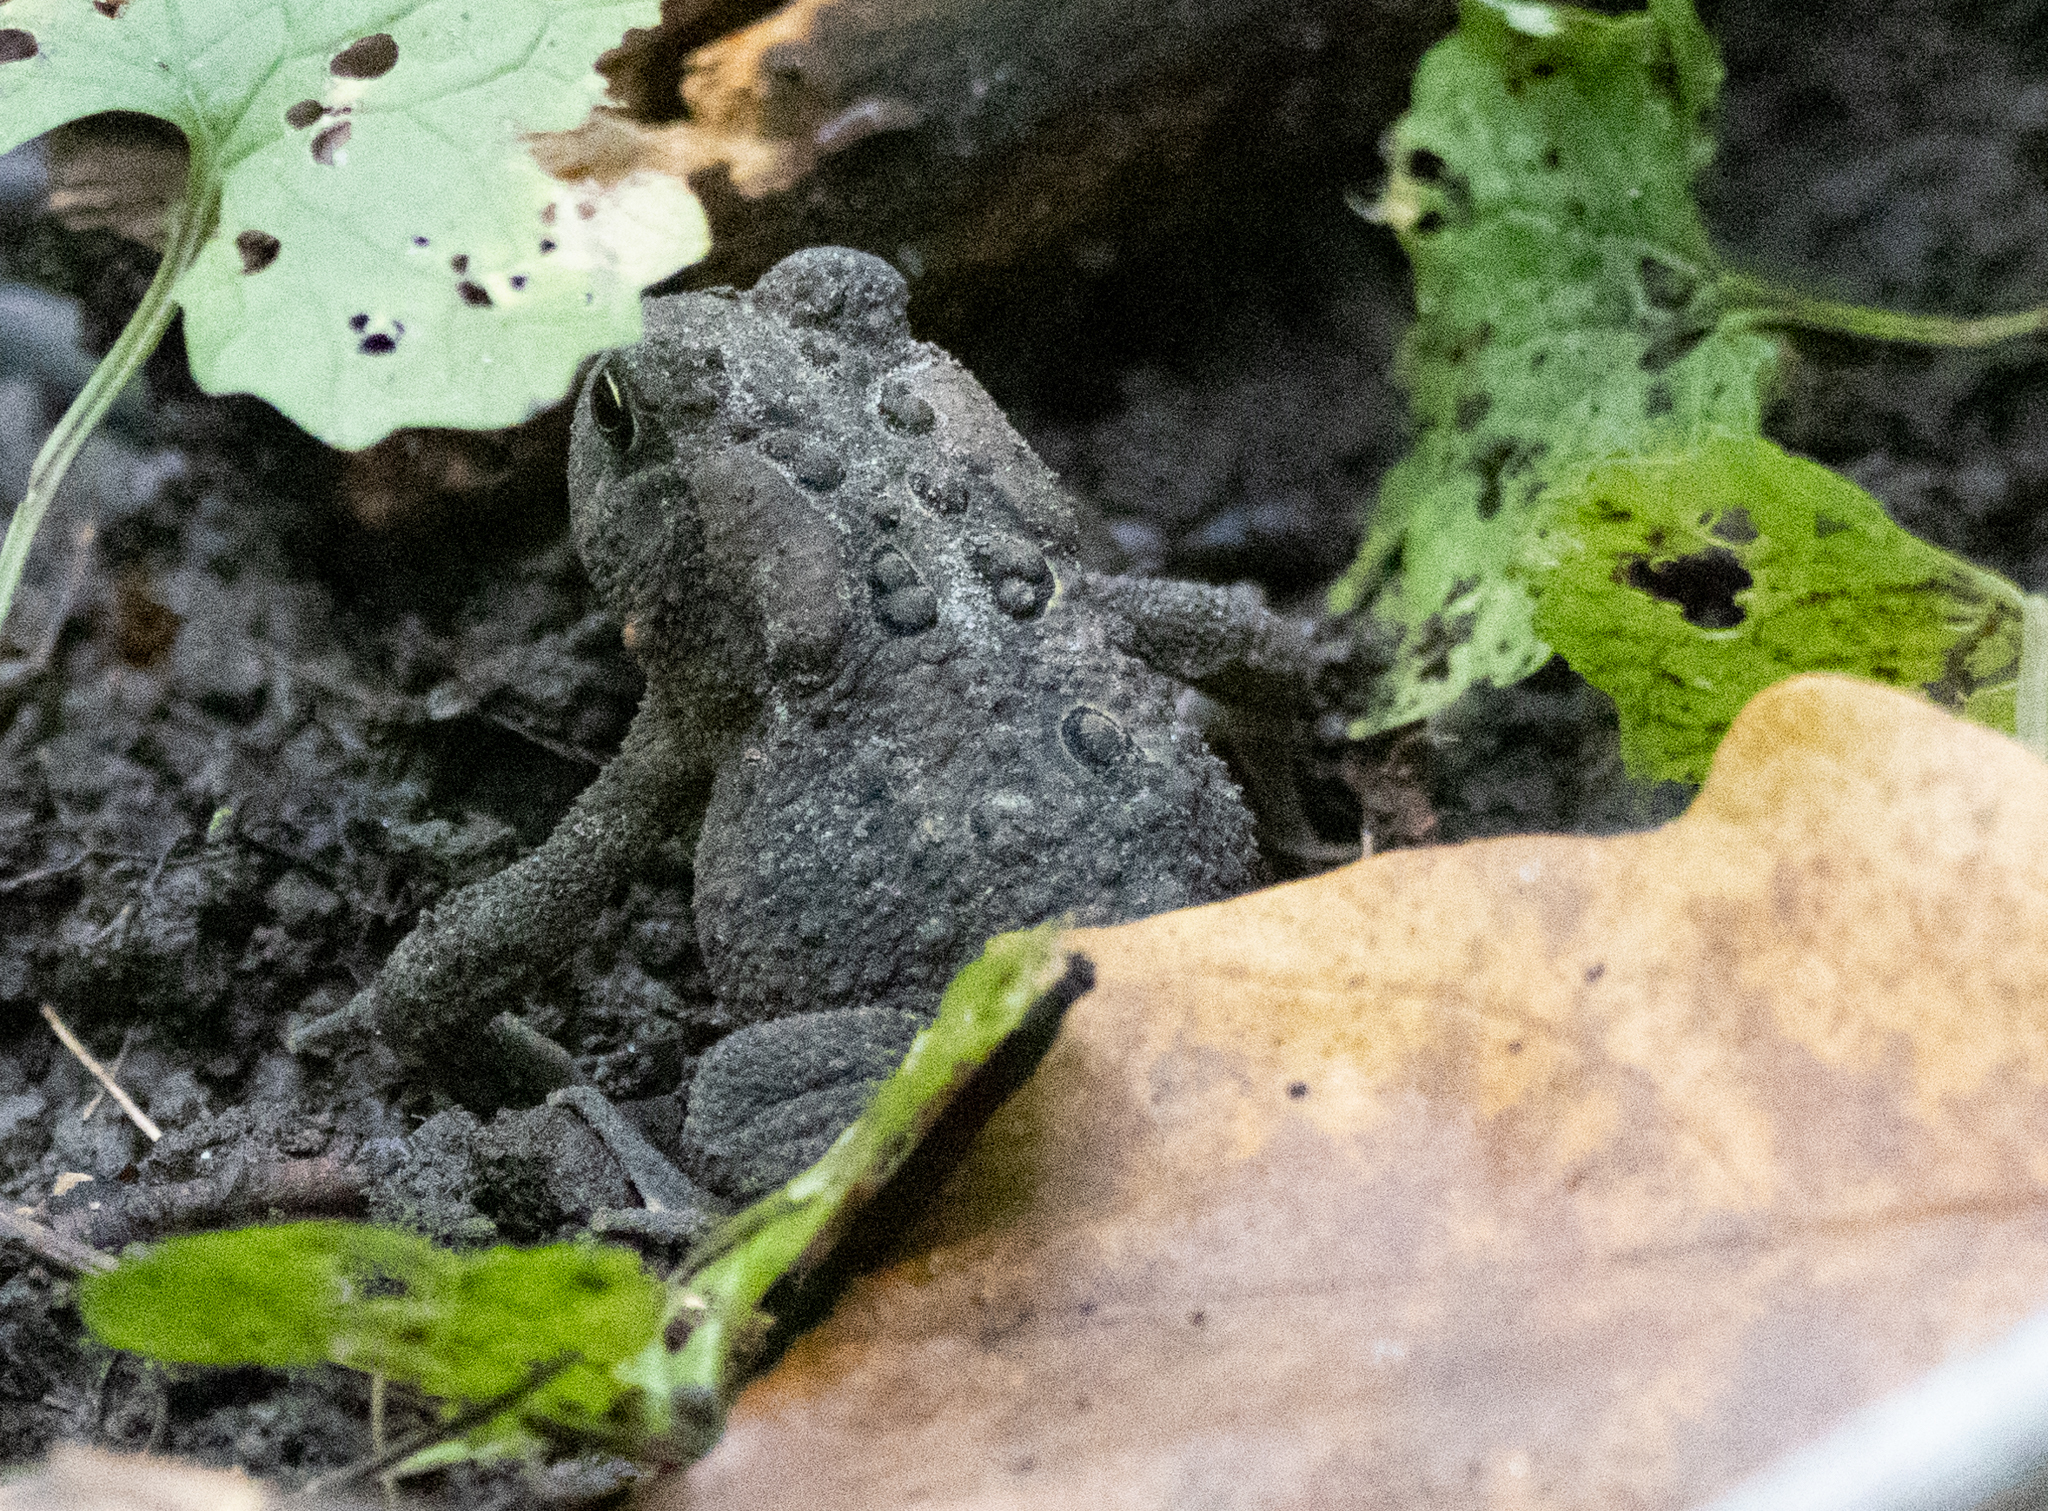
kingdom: Animalia
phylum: Chordata
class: Amphibia
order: Anura
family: Bufonidae
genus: Anaxyrus
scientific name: Anaxyrus americanus
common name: American toad
